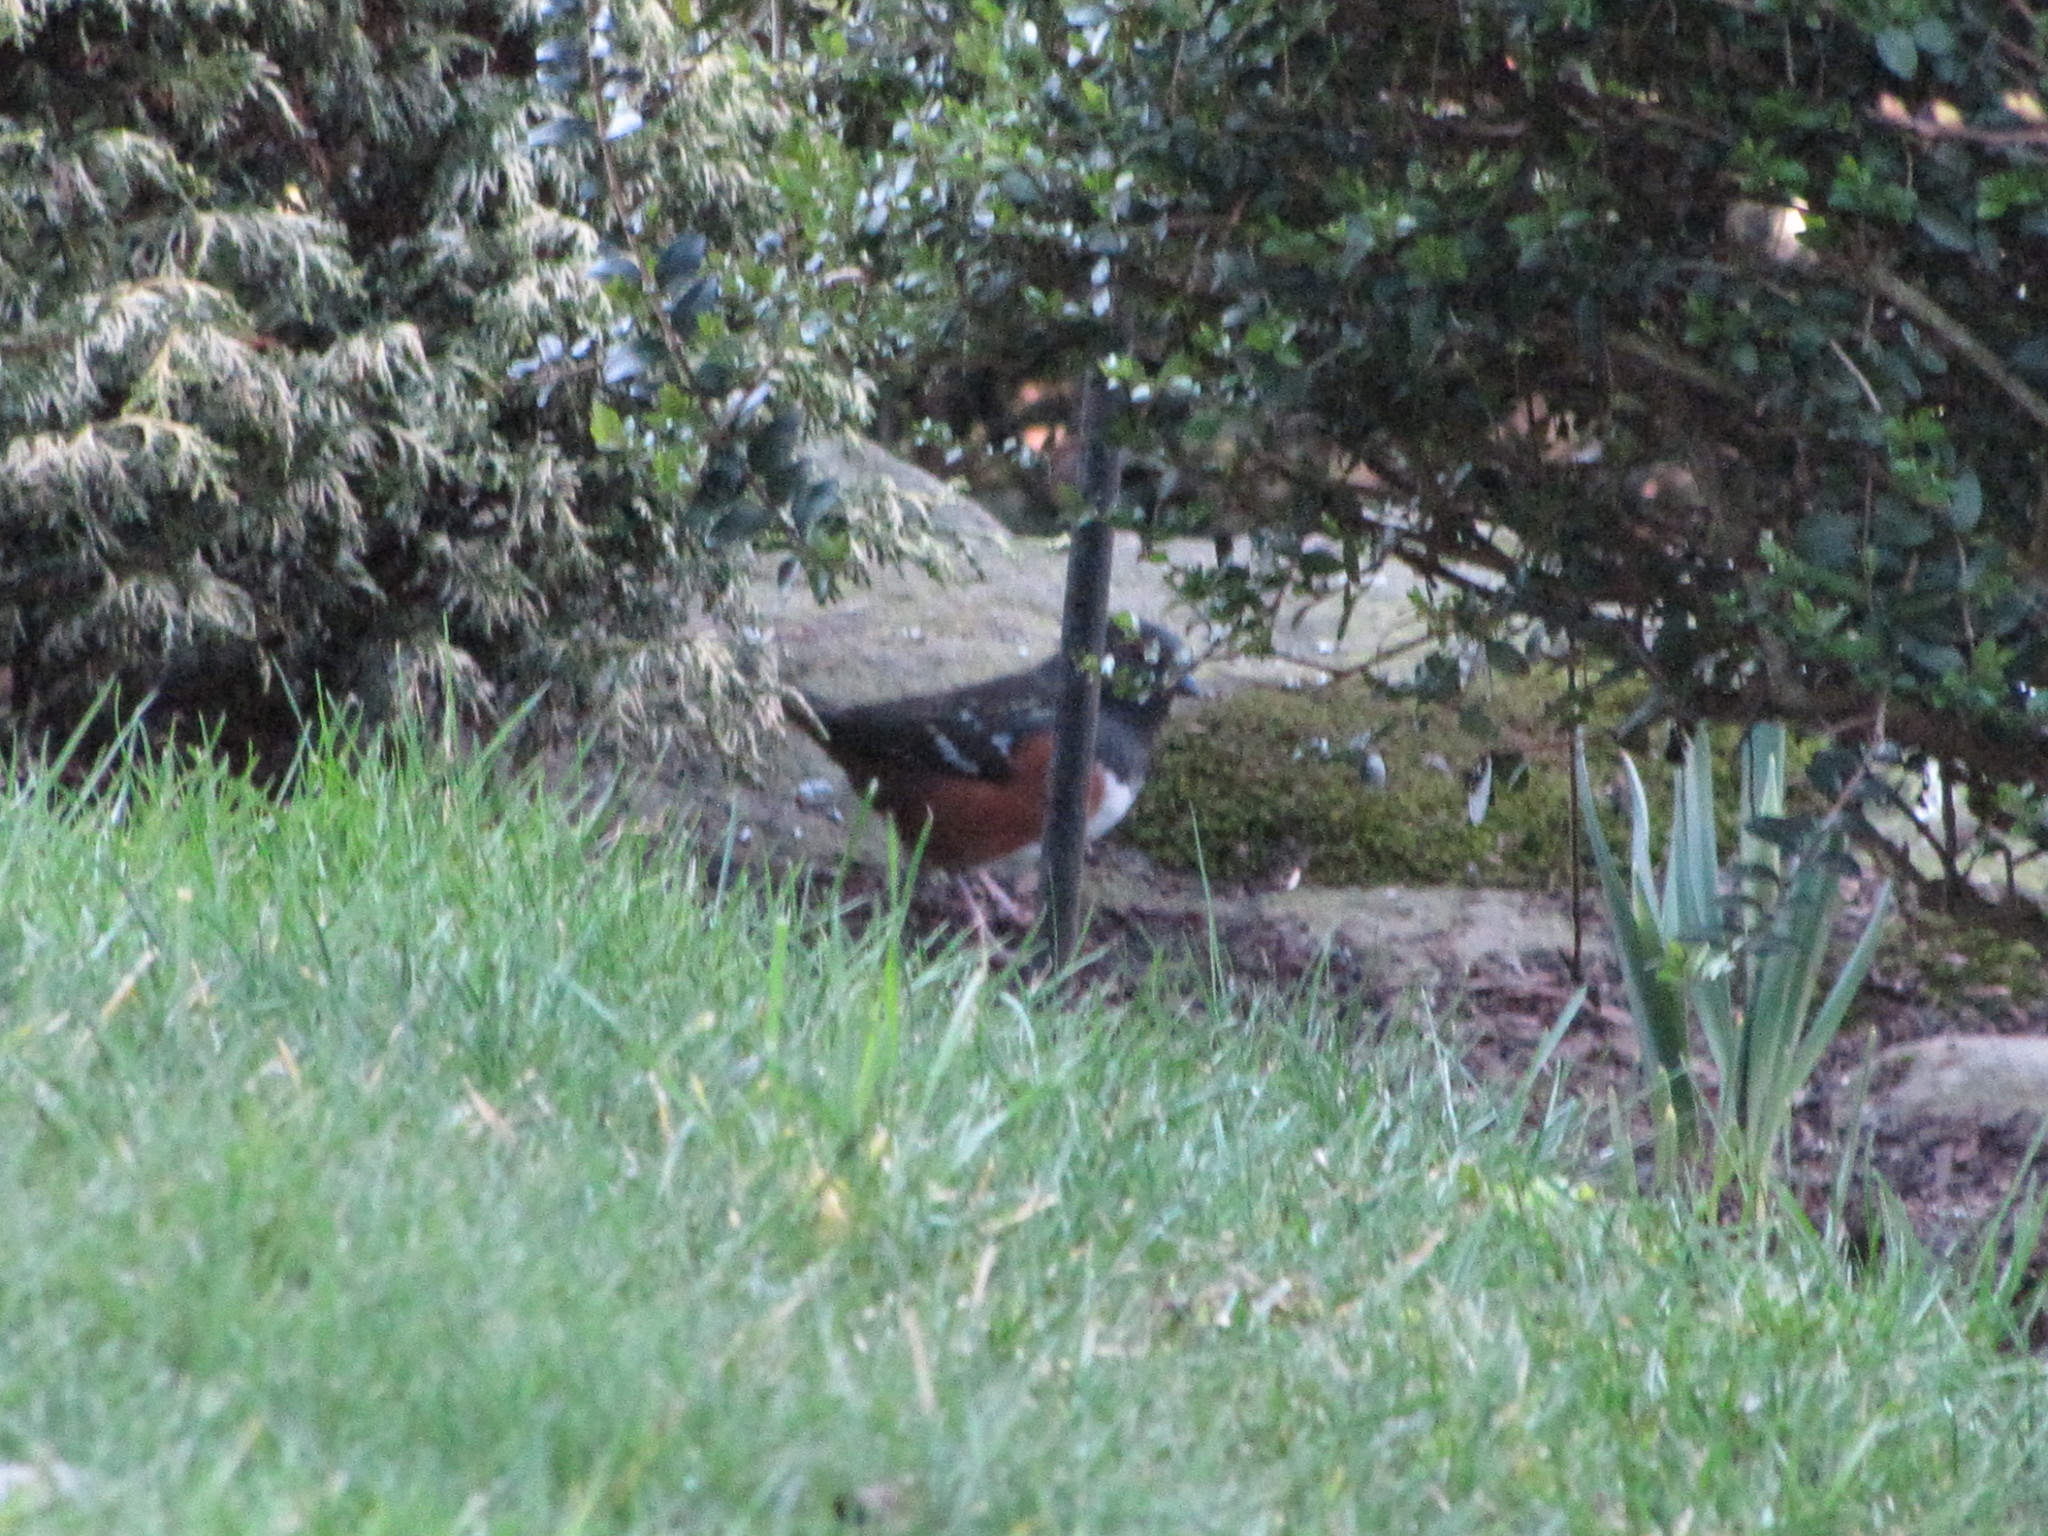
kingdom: Animalia
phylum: Chordata
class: Aves
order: Passeriformes
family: Passerellidae
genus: Pipilo
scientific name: Pipilo maculatus
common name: Spotted towhee
